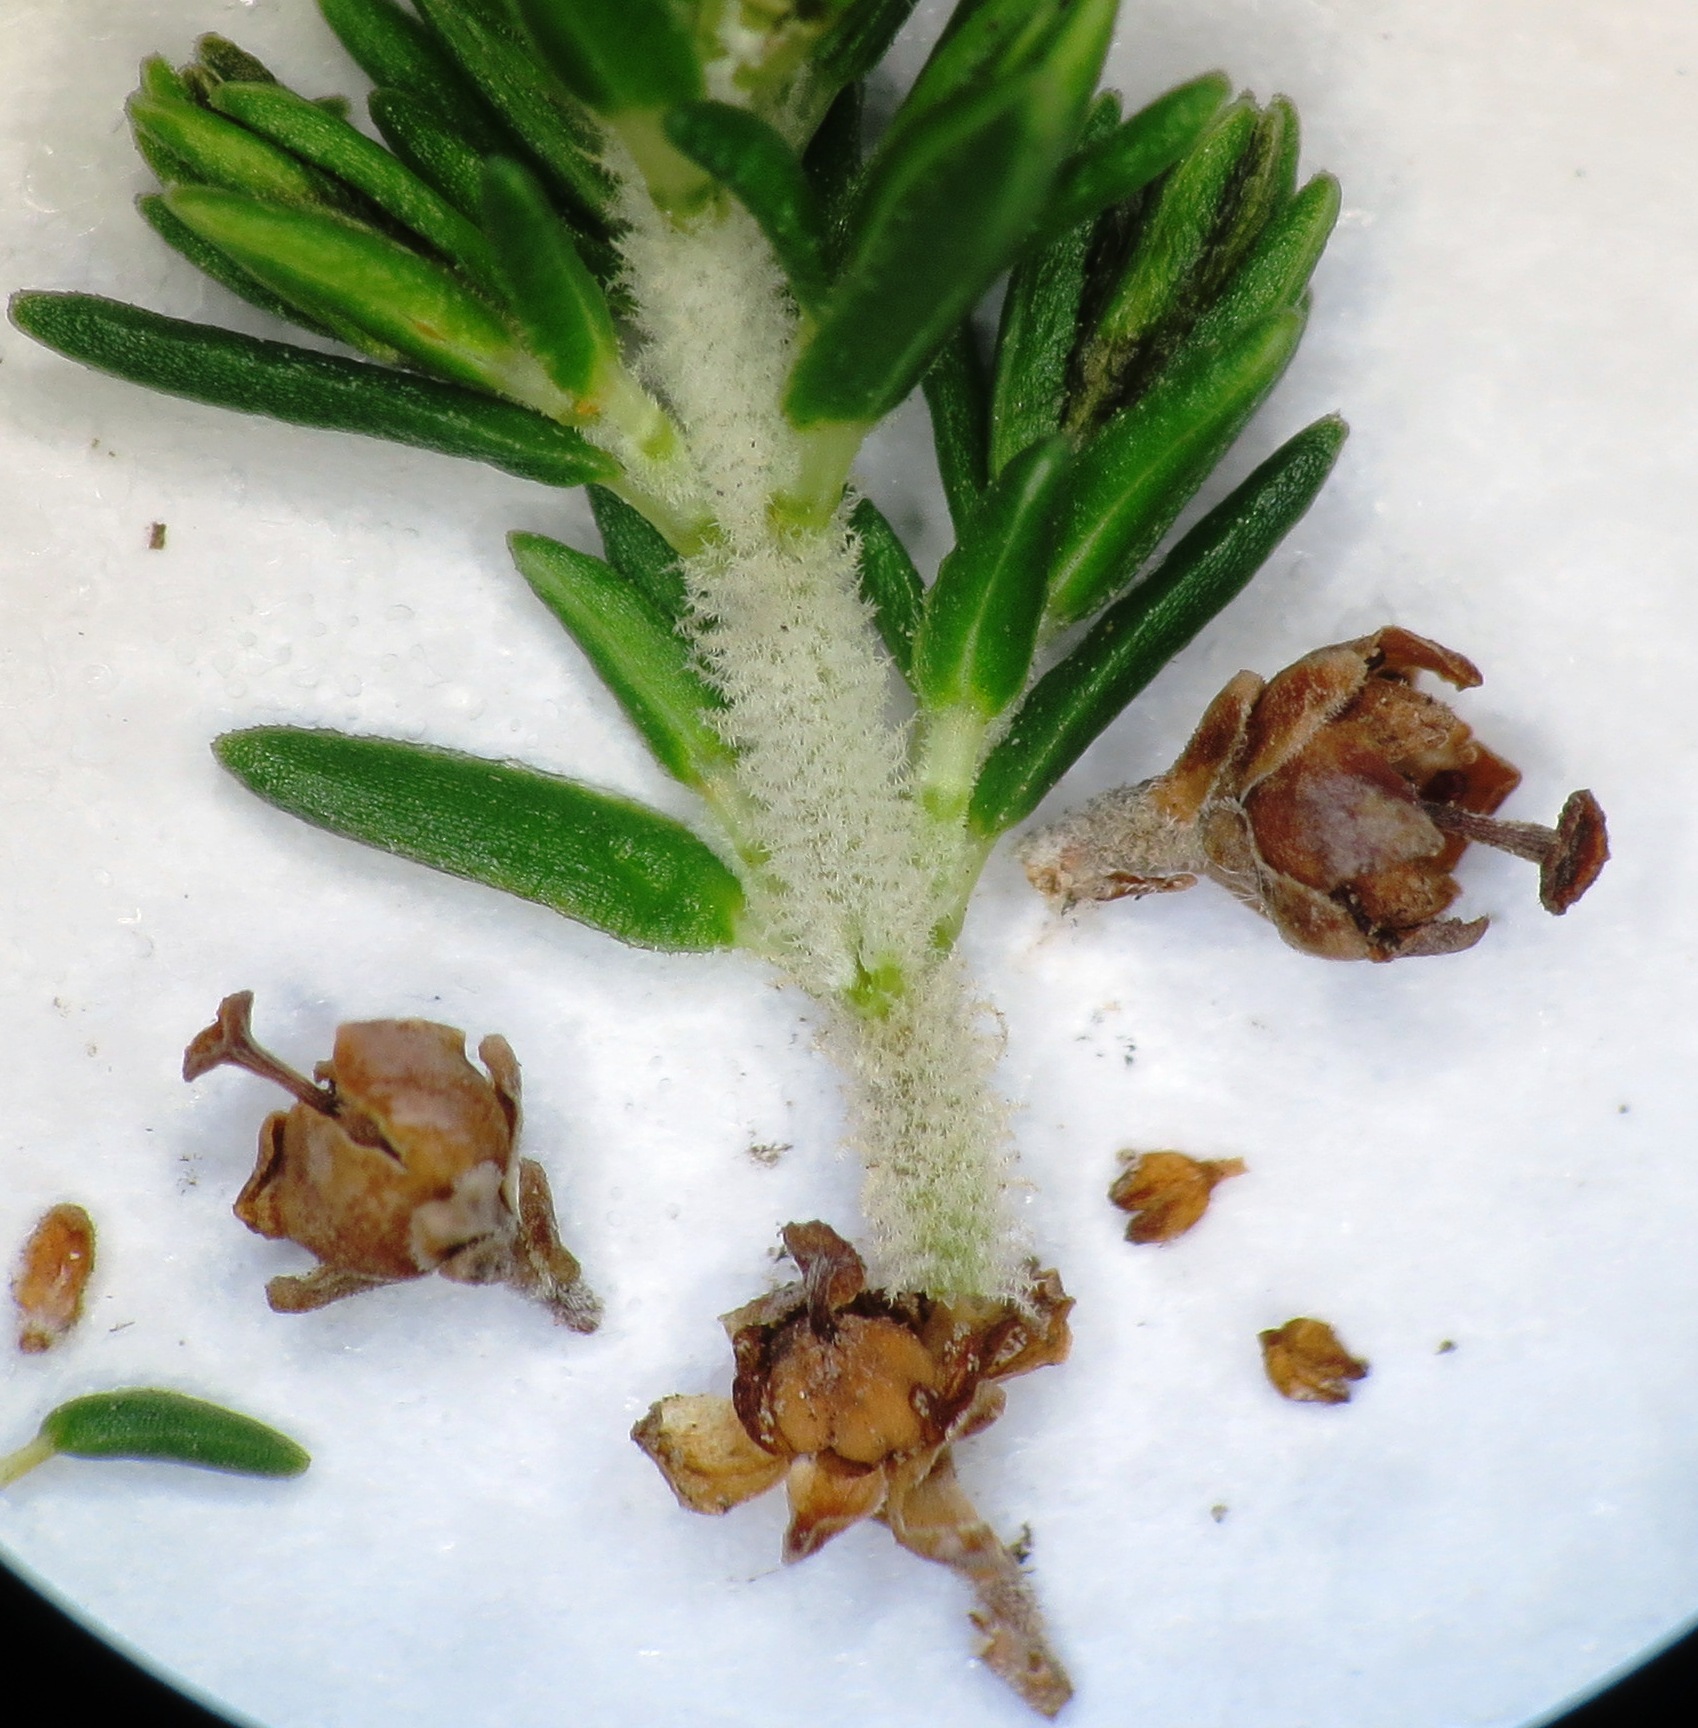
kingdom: Plantae
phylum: Tracheophyta
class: Magnoliopsida
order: Ericales
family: Ericaceae
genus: Erica
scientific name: Erica magnisylvae
